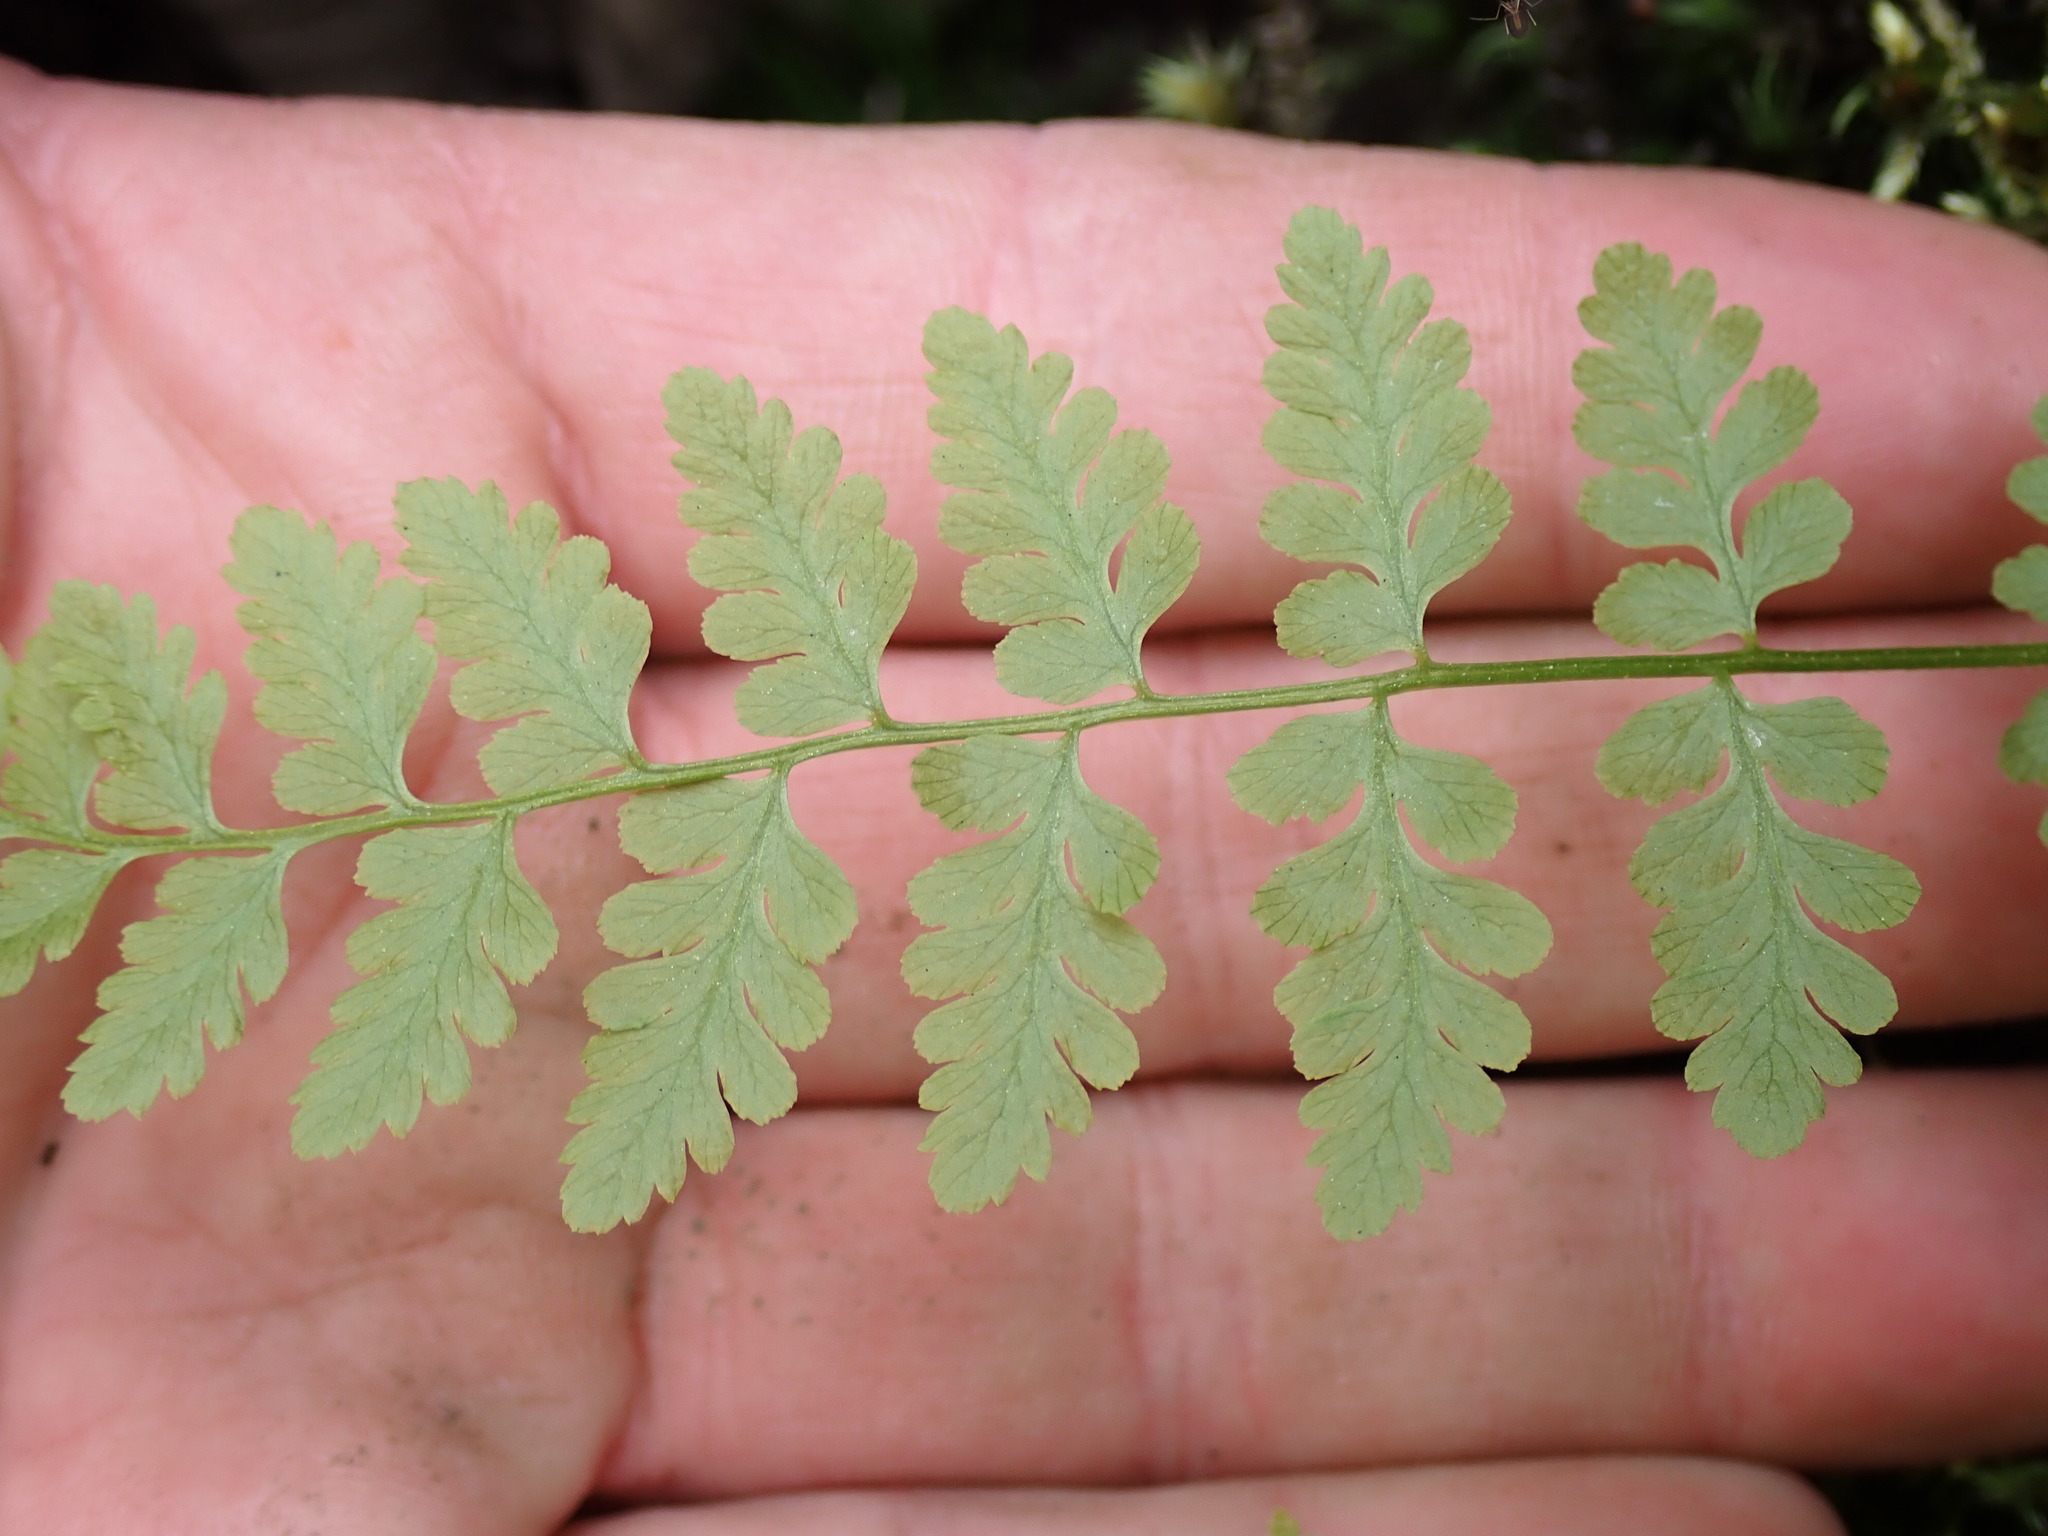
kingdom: Plantae
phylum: Tracheophyta
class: Polypodiopsida
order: Polypodiales
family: Cystopteridaceae
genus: Cystopteris
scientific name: Cystopteris fragilis
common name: Brittle bladder fern
